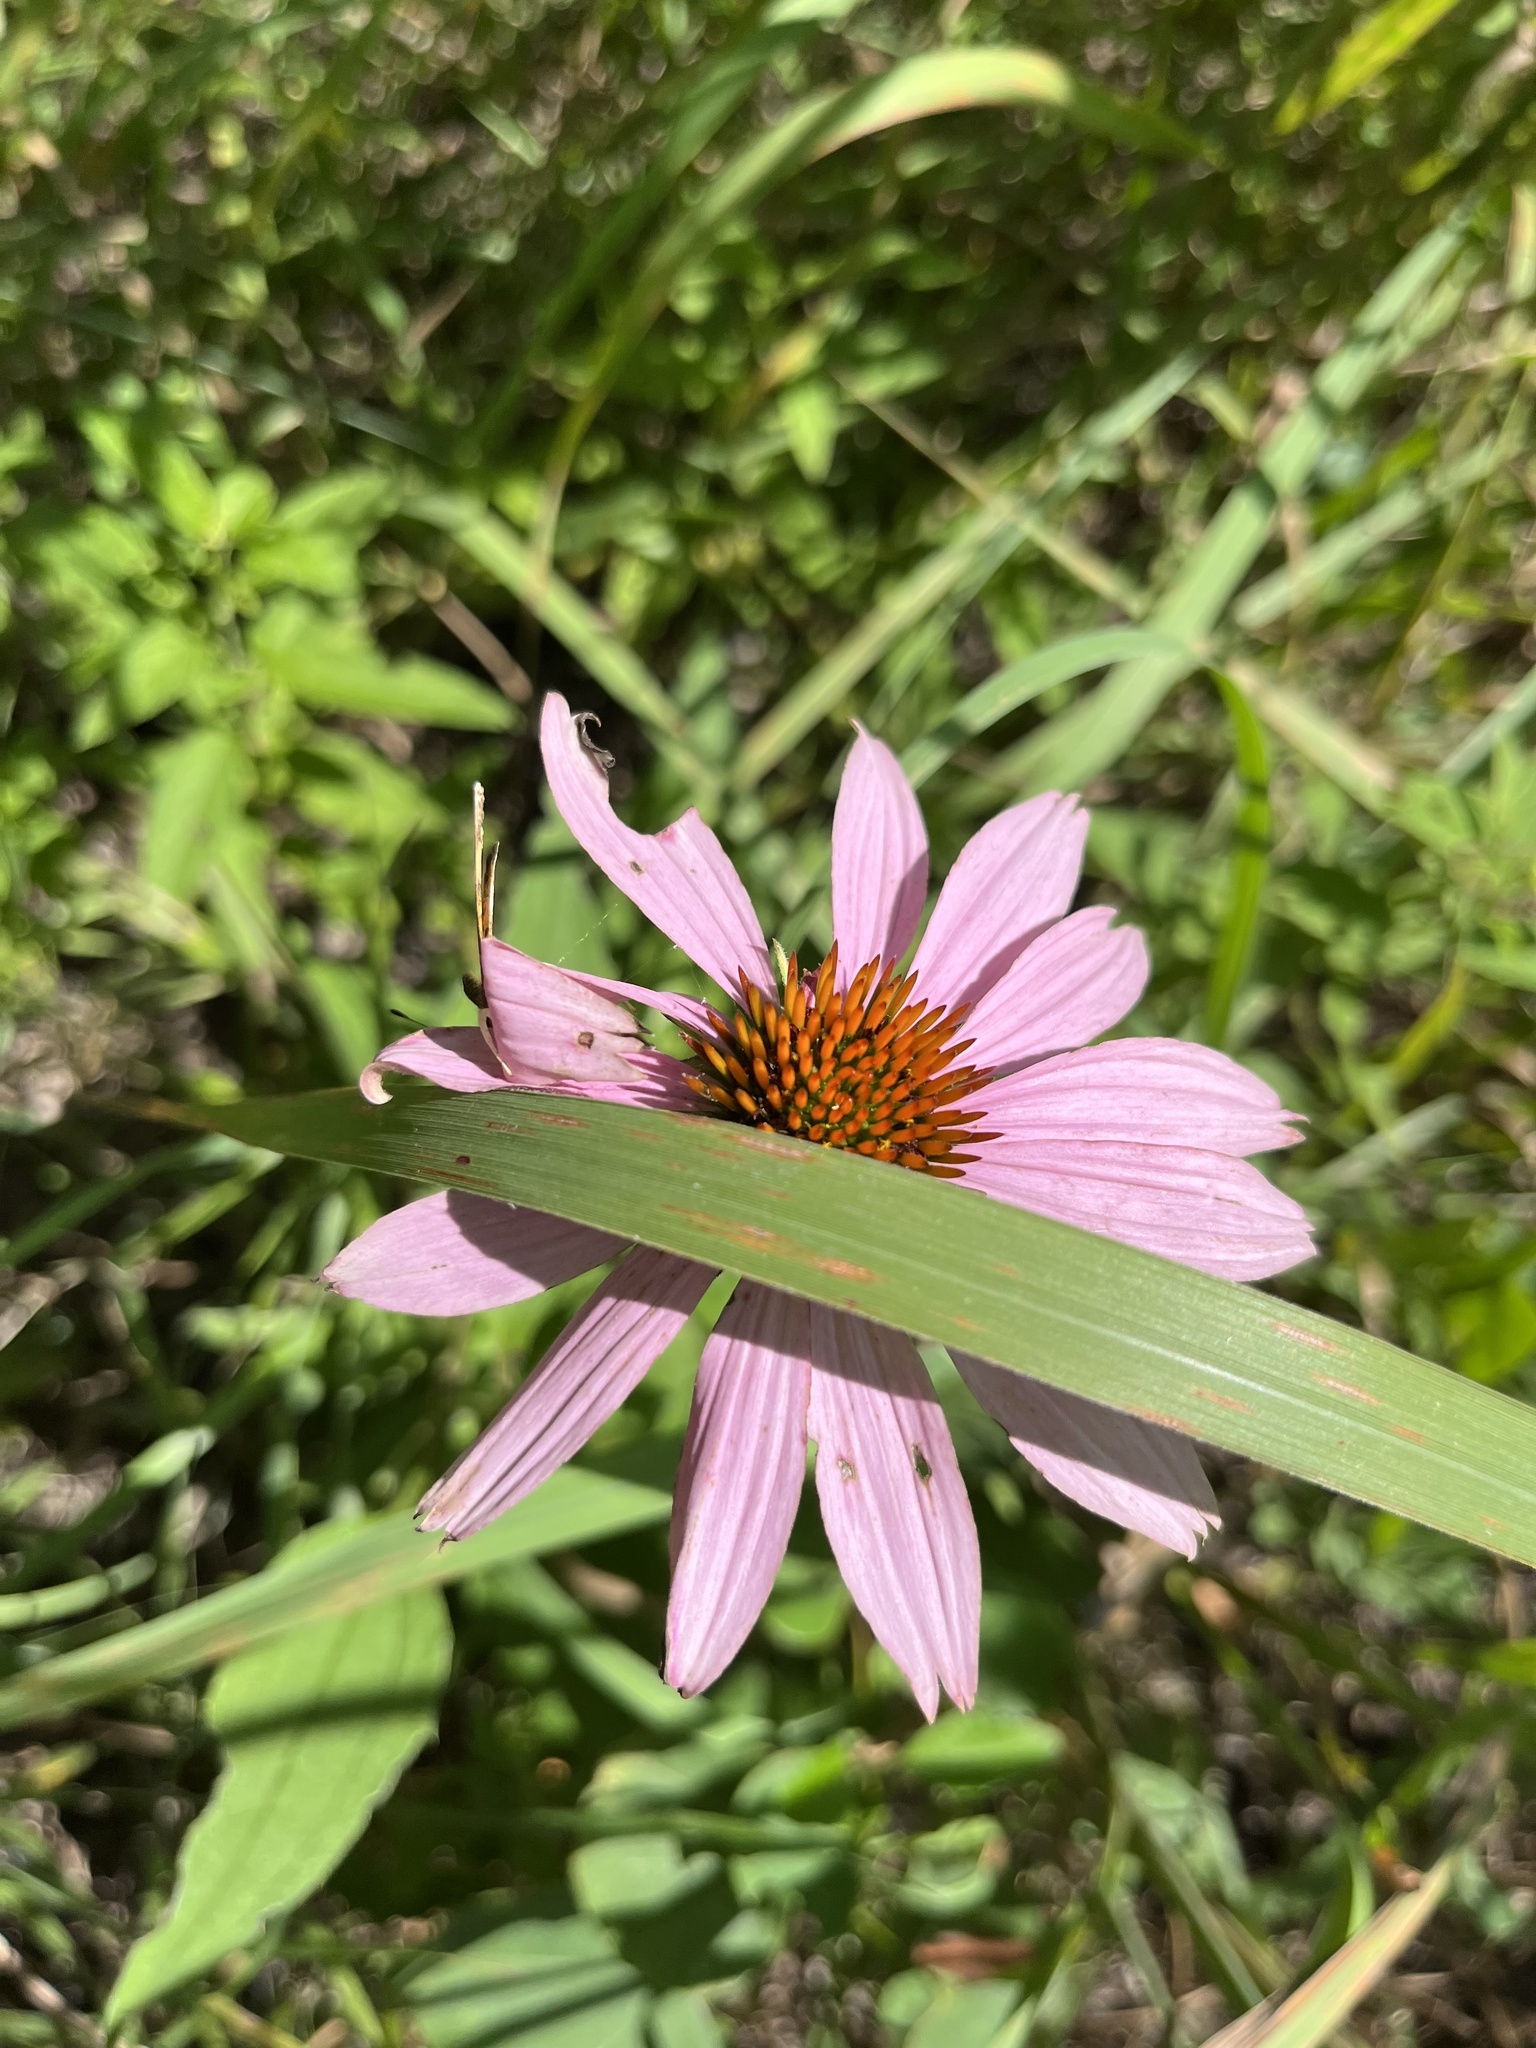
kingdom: Plantae
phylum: Tracheophyta
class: Magnoliopsida
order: Asterales
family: Asteraceae
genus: Echinacea
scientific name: Echinacea purpurea
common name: Broad-leaved purple coneflower
